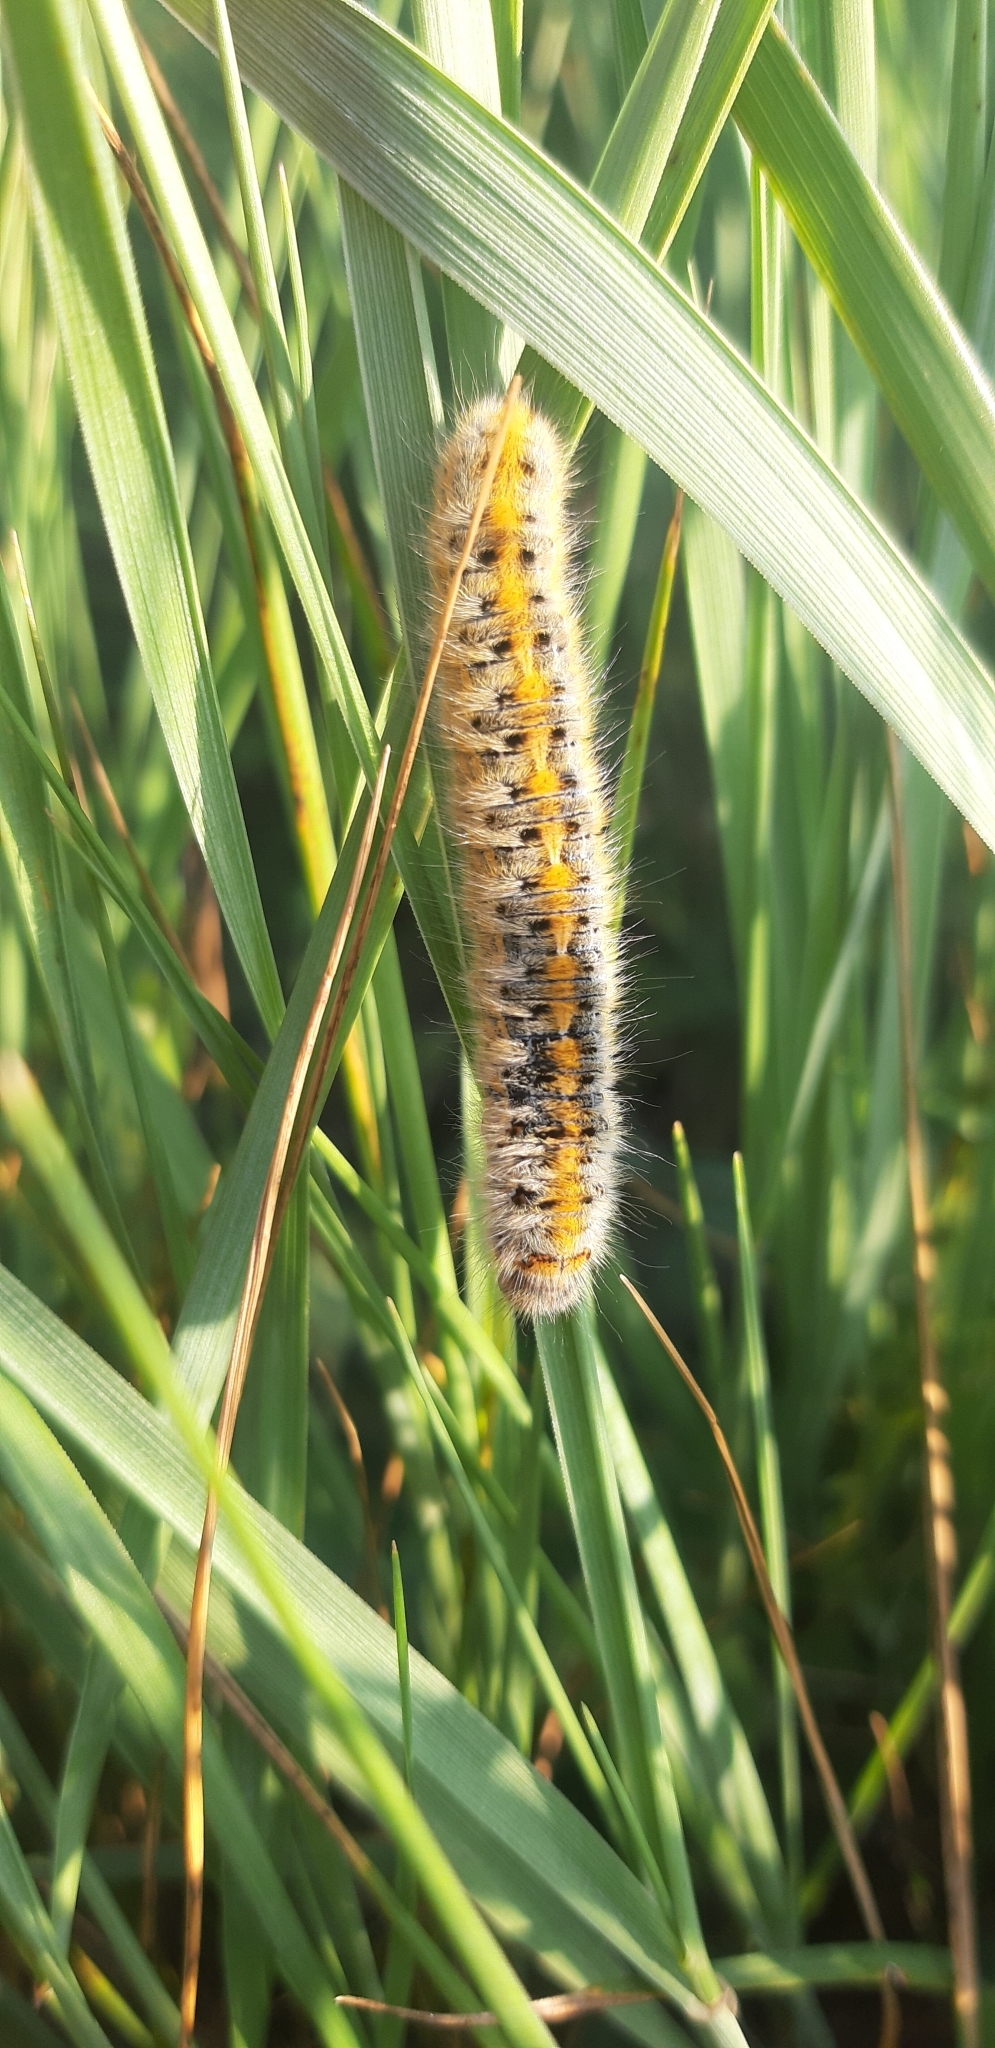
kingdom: Animalia
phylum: Arthropoda
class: Insecta
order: Lepidoptera
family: Lasiocampidae
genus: Lasiocampa
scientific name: Lasiocampa trifolii
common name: Grass eggar
